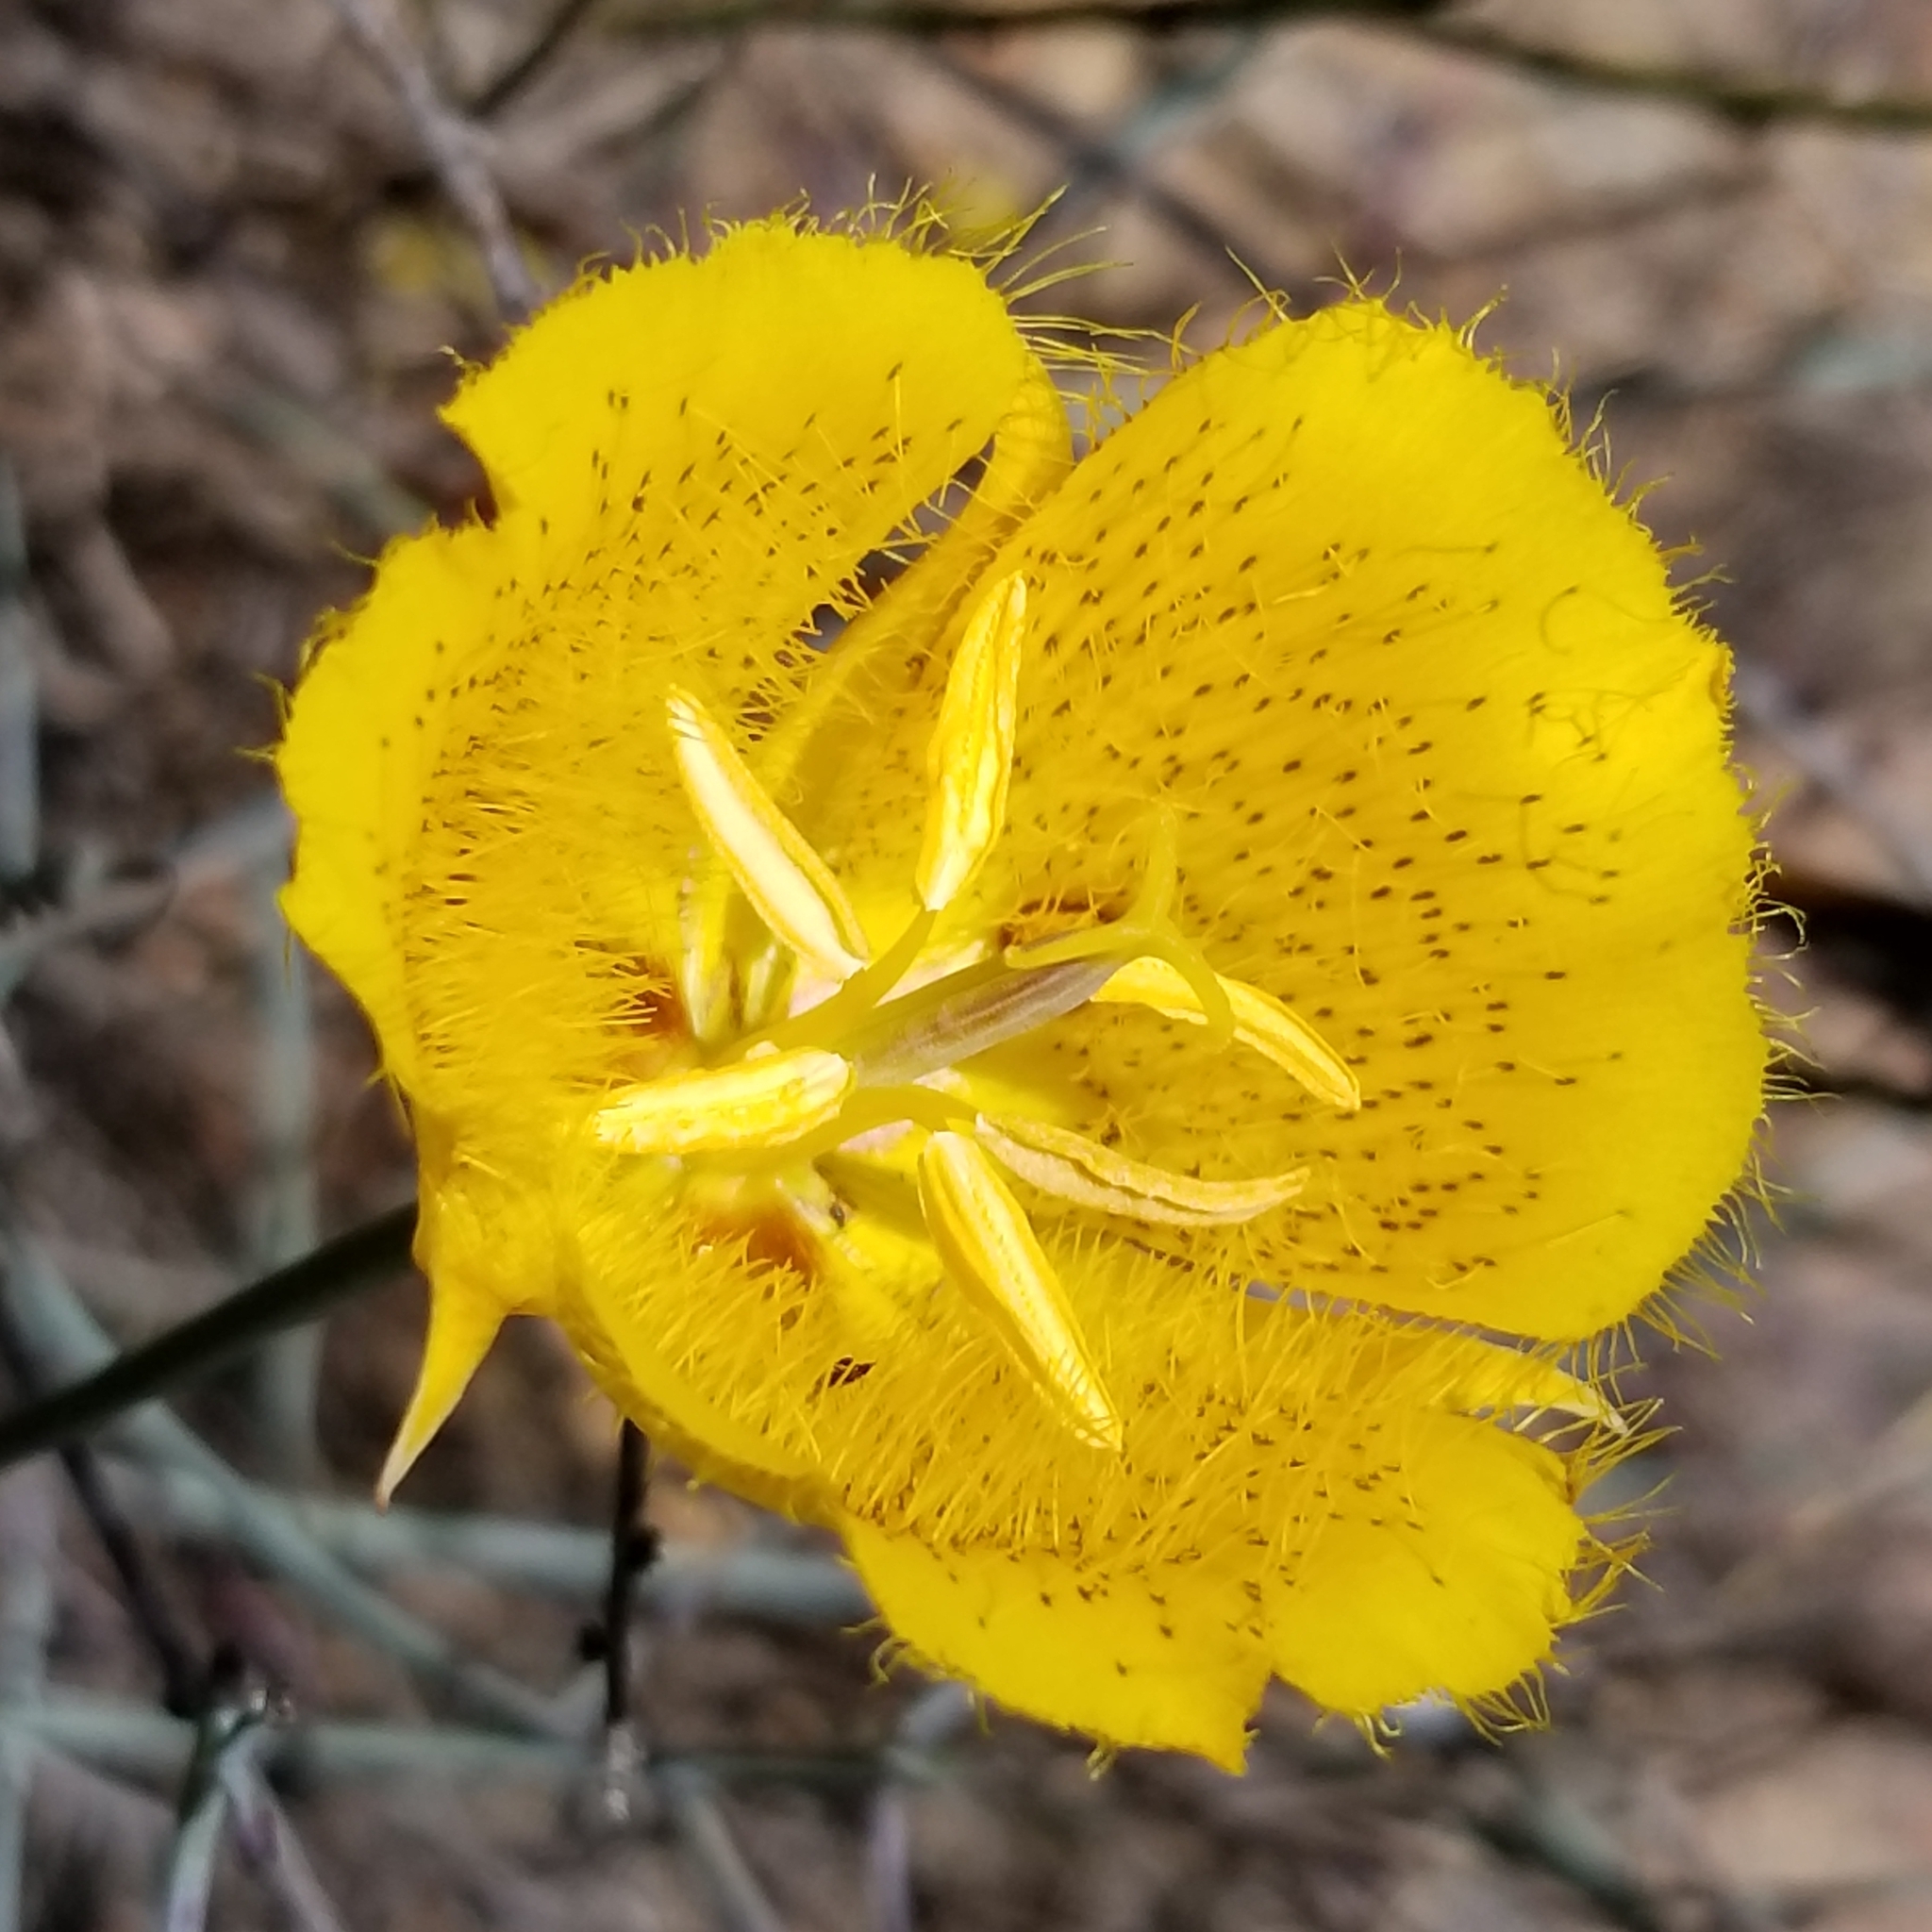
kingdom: Plantae
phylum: Tracheophyta
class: Liliopsida
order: Liliales
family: Liliaceae
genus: Calochortus
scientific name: Calochortus weedii
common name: Weed's mariposa-lily
